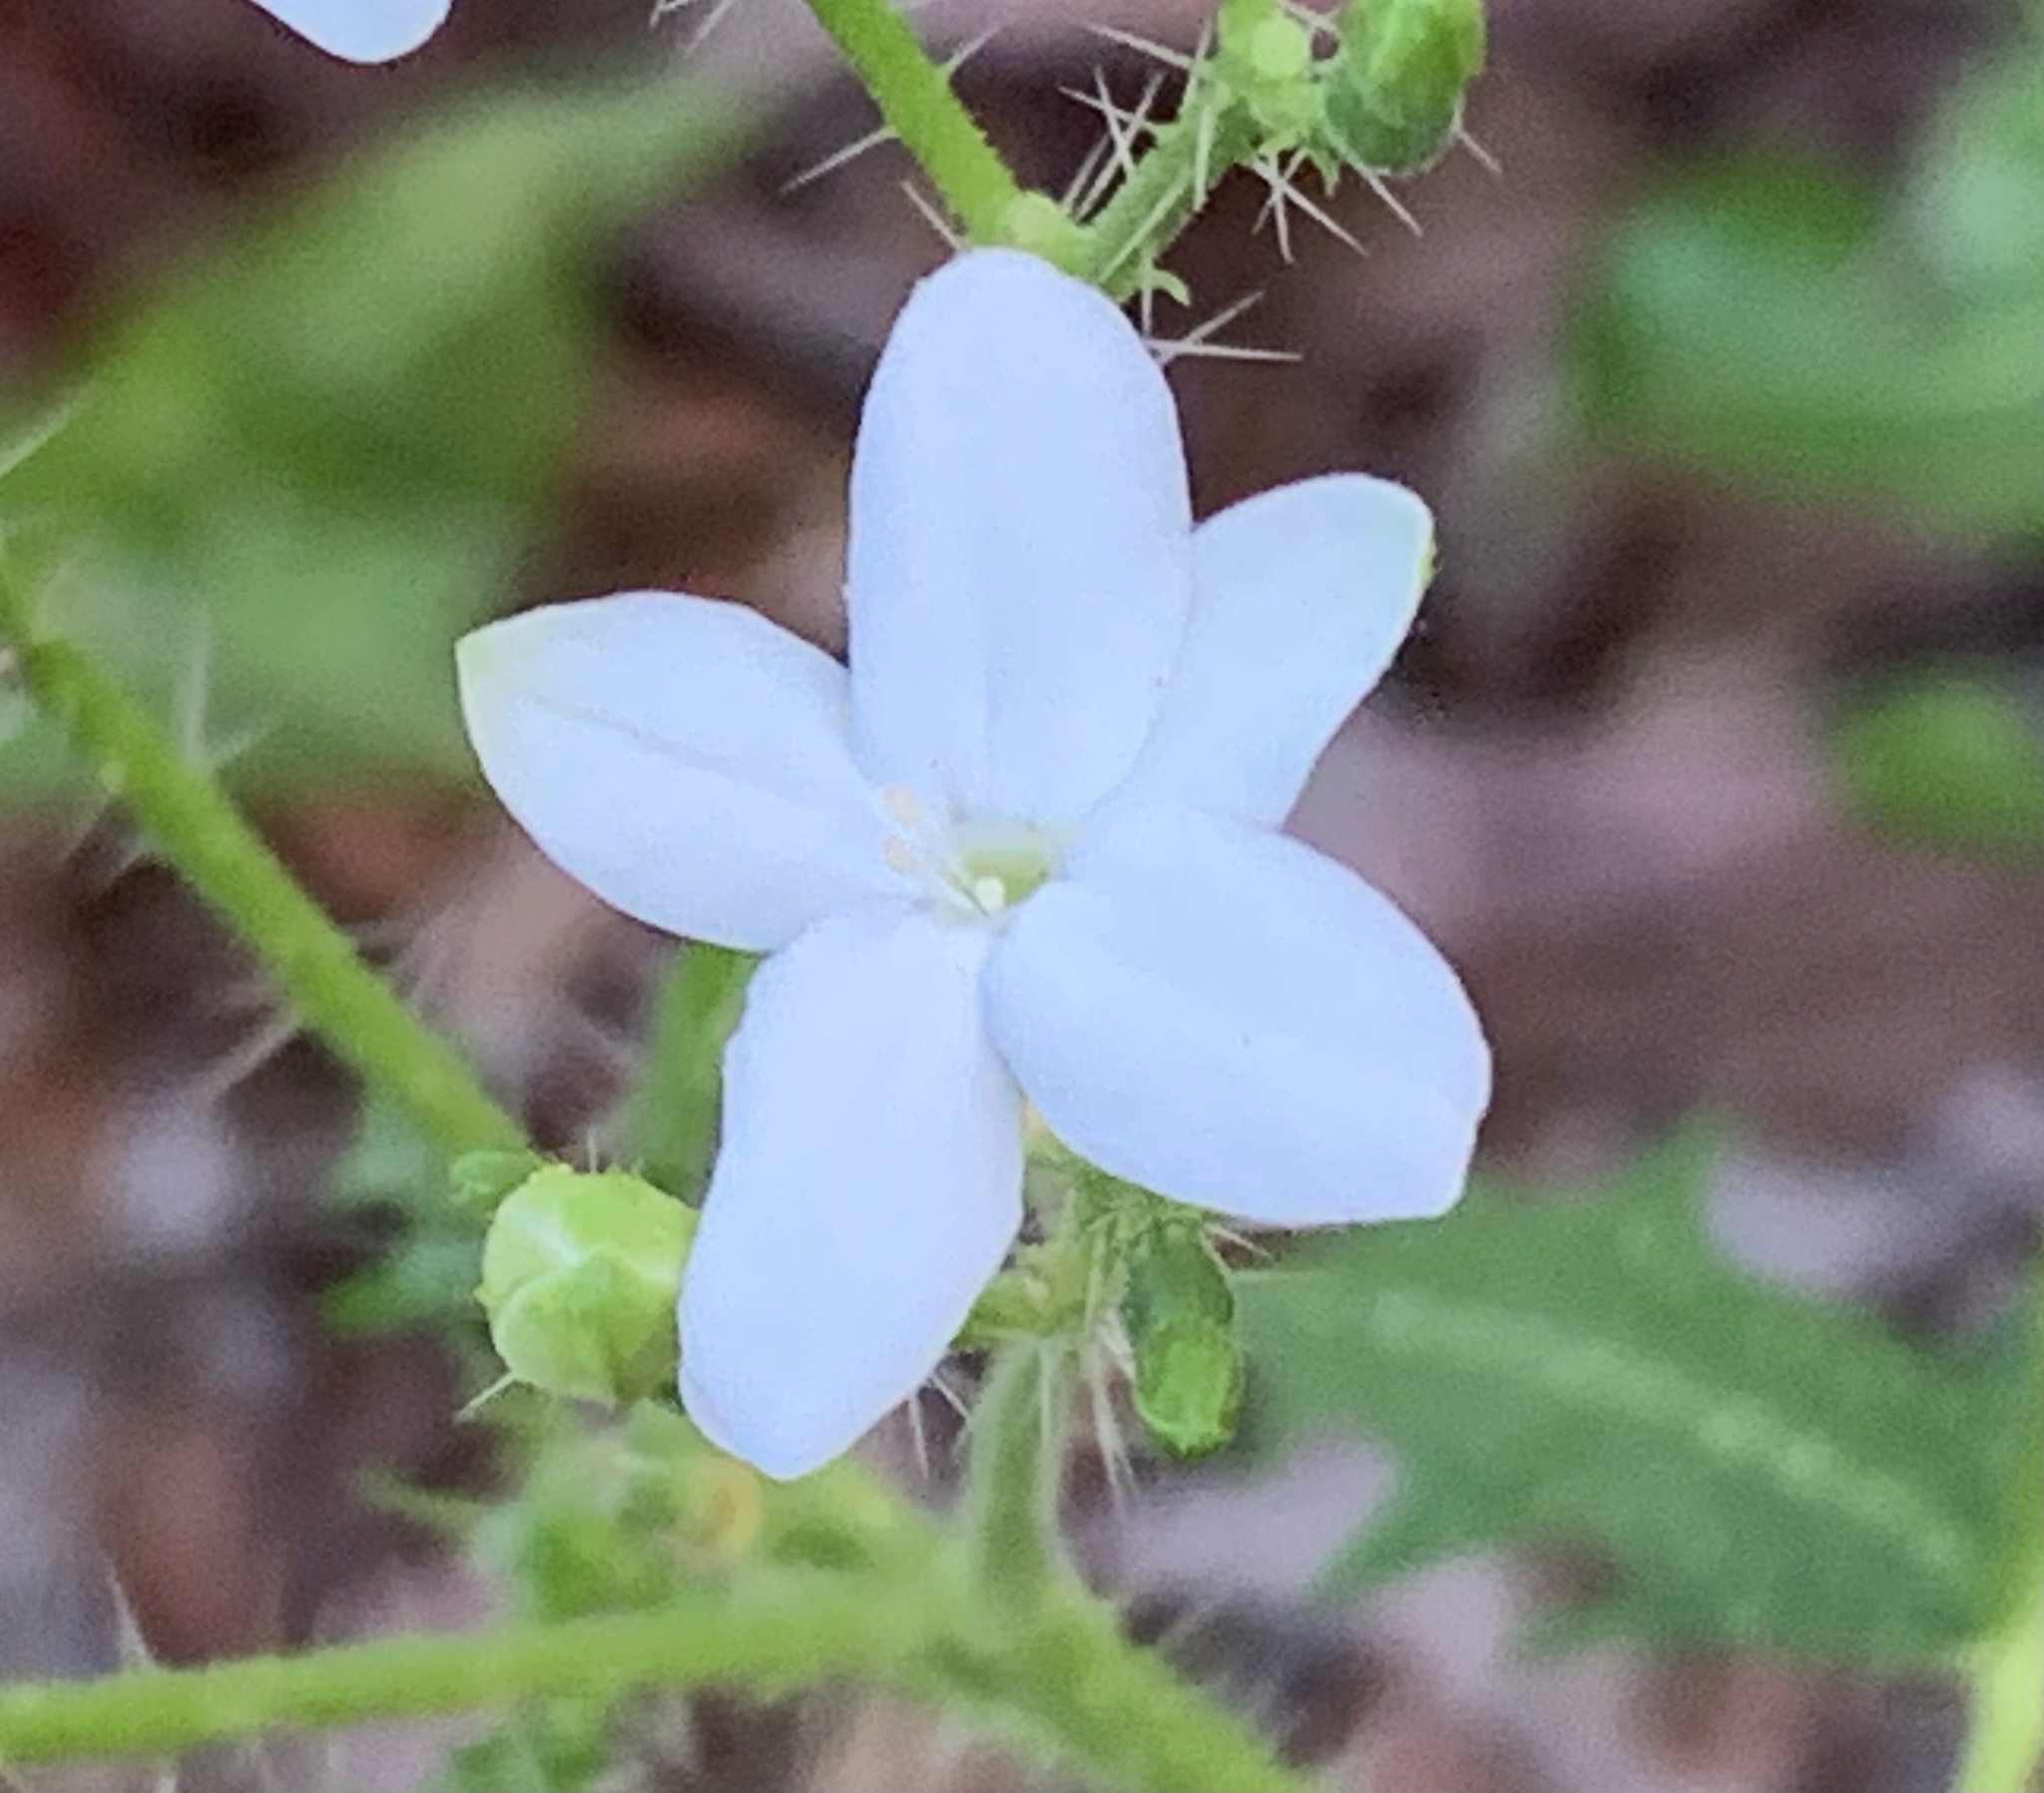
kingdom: Plantae
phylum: Tracheophyta
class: Magnoliopsida
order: Malpighiales
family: Euphorbiaceae
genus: Cnidoscolus
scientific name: Cnidoscolus stimulosus
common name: Bull-nettle
